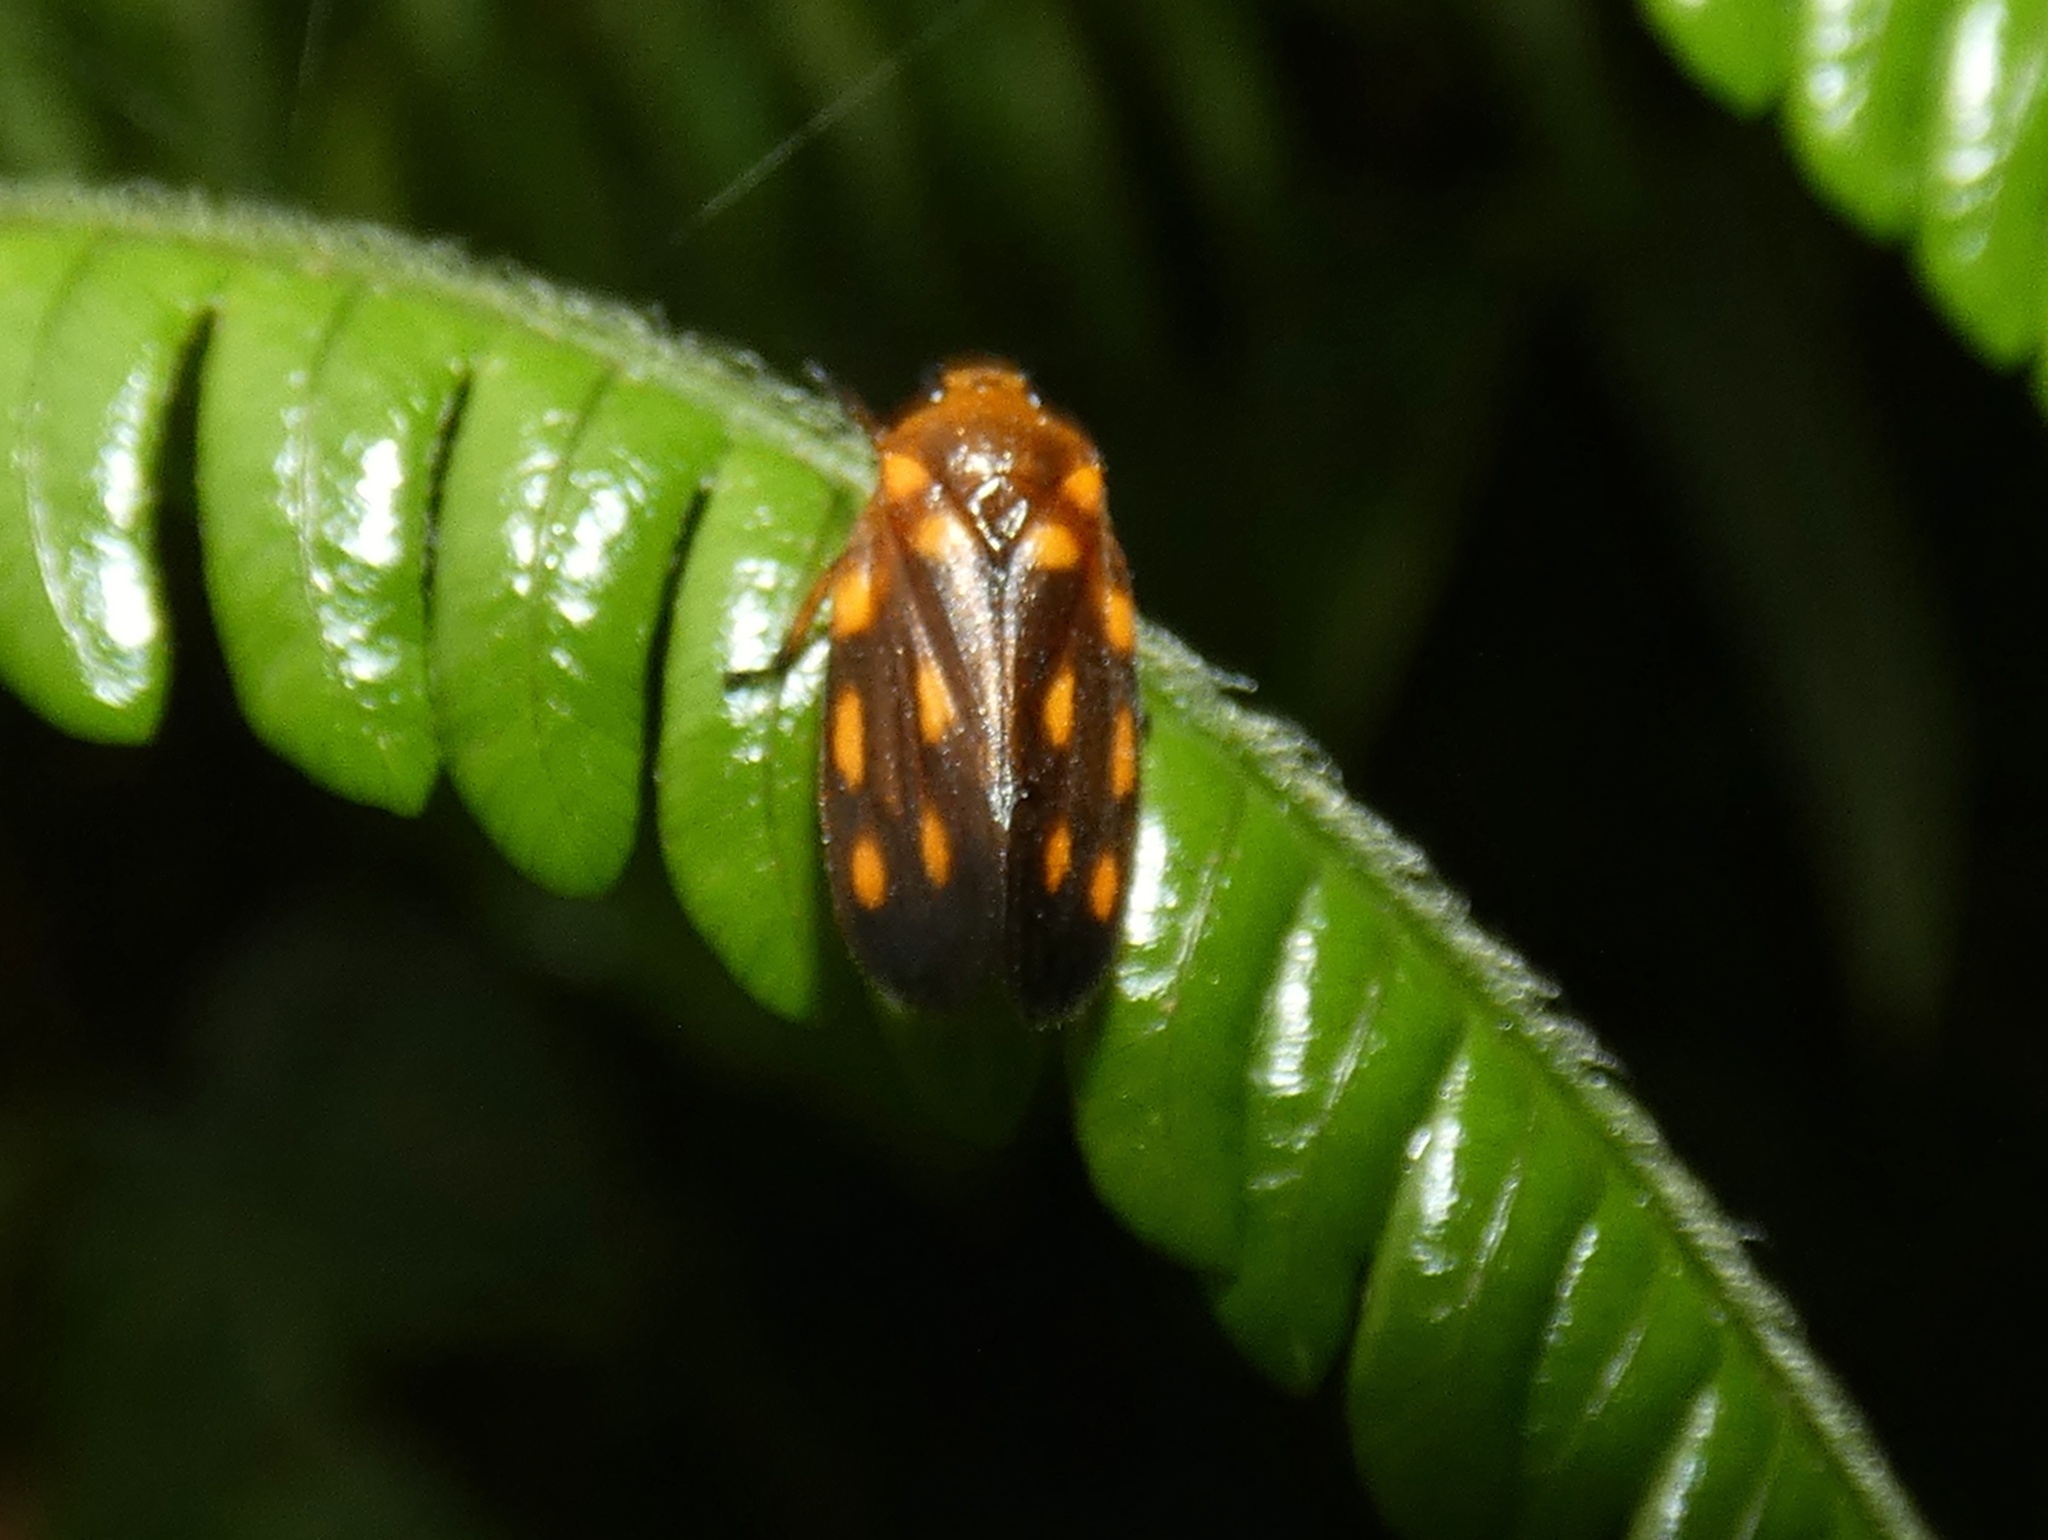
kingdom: Animalia
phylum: Arthropoda
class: Insecta
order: Hemiptera
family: Cercopidae
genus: Ocoaxo
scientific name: Ocoaxo septemnotatus
